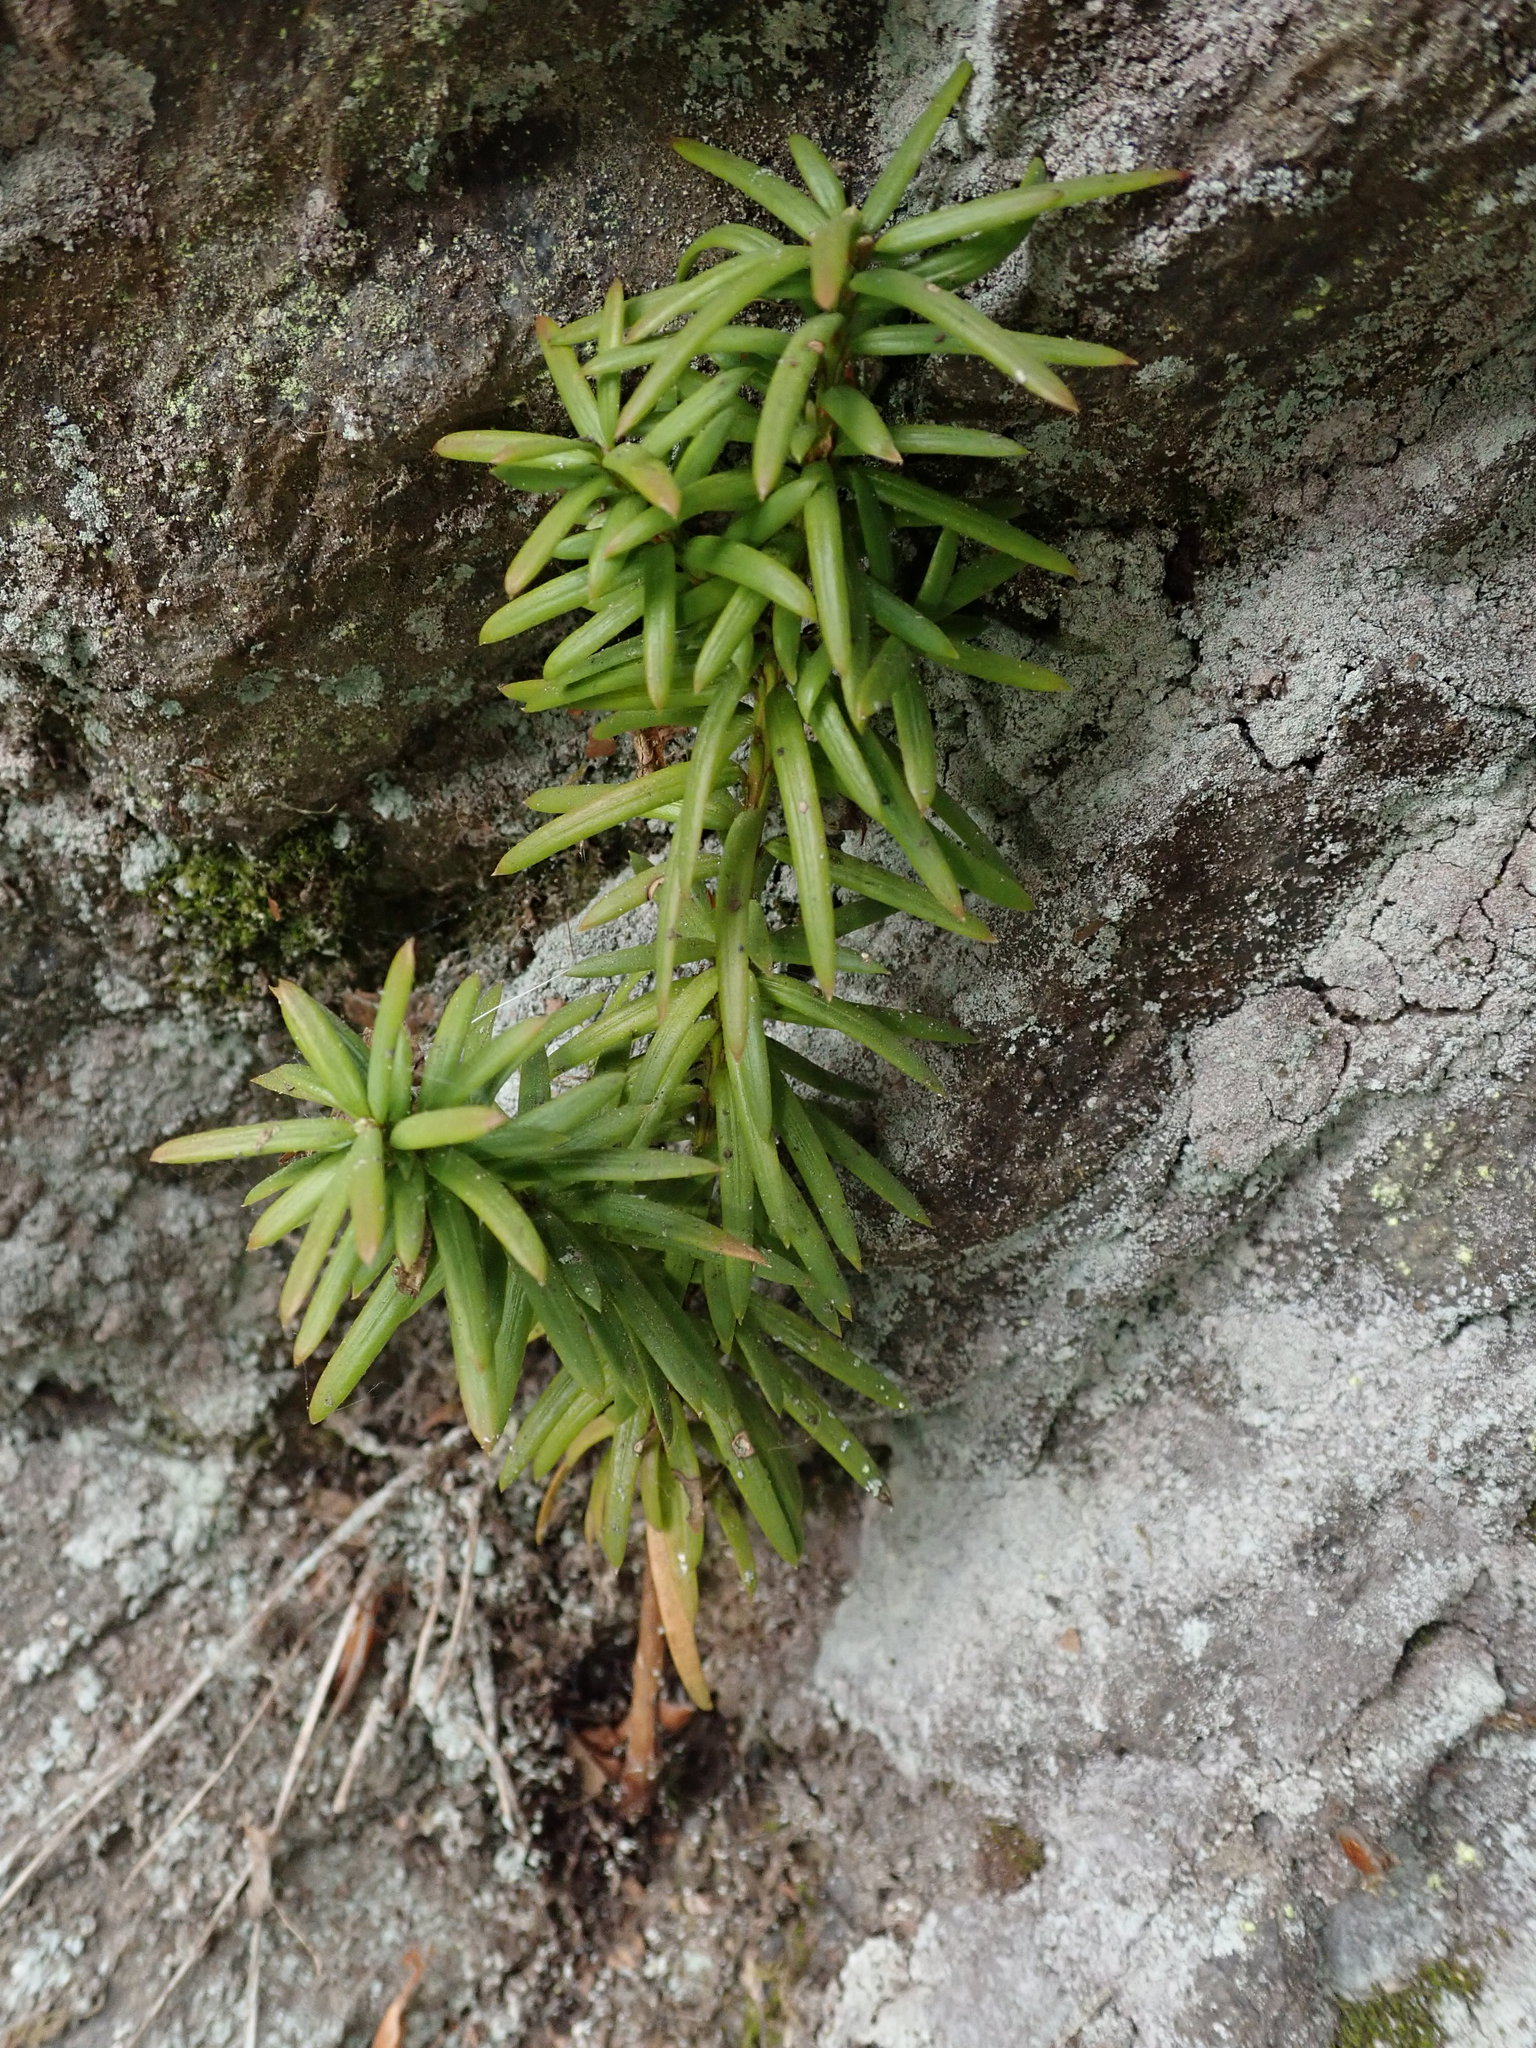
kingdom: Plantae
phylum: Tracheophyta
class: Pinopsida
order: Pinales
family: Taxaceae
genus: Taxus
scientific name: Taxus baccata
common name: Yew
